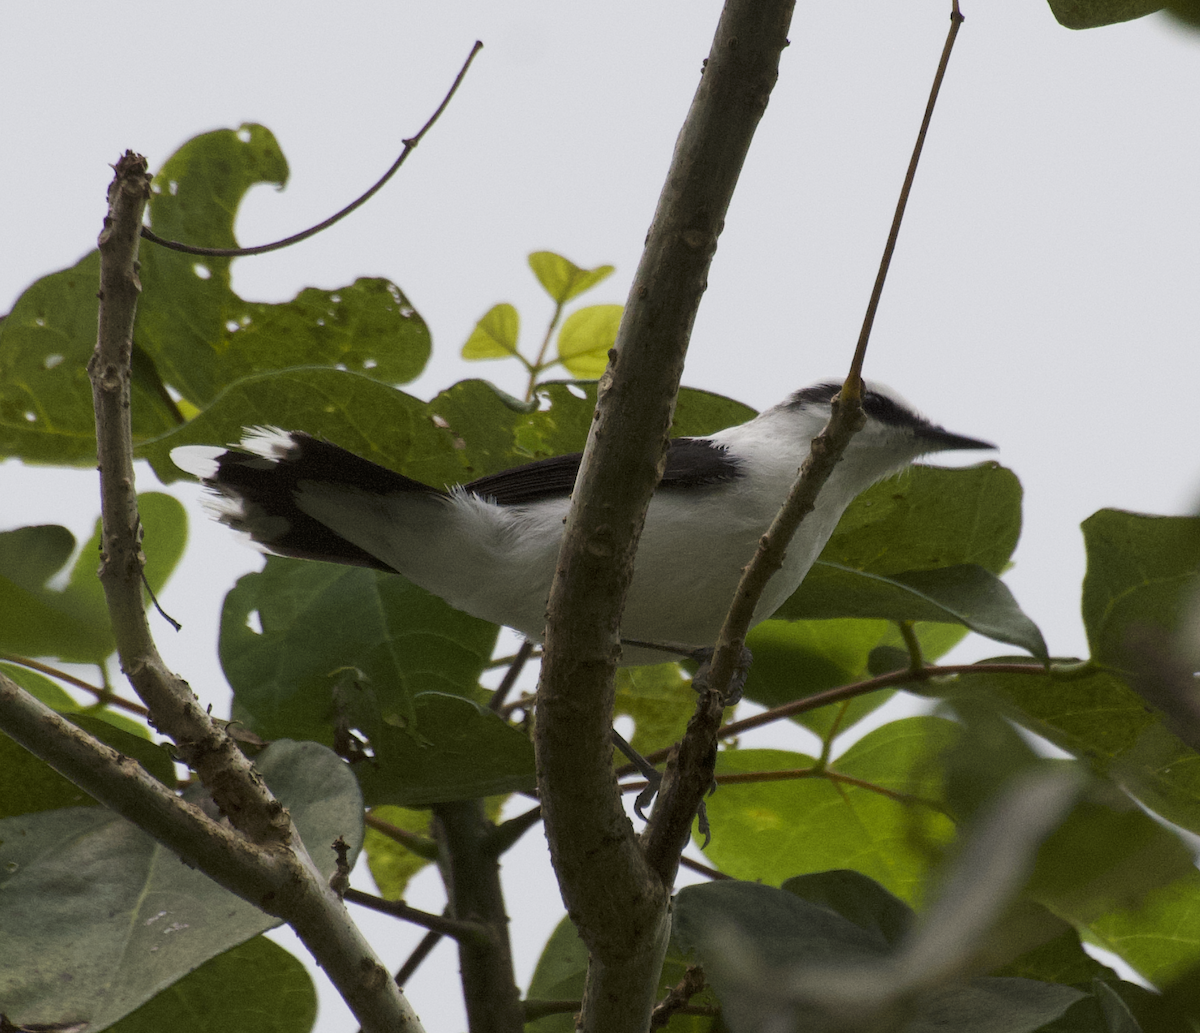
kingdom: Animalia
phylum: Chordata
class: Aves
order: Passeriformes
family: Tyrannidae
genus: Fluvicola
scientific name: Fluvicola nengeta
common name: Masked water tyrant
